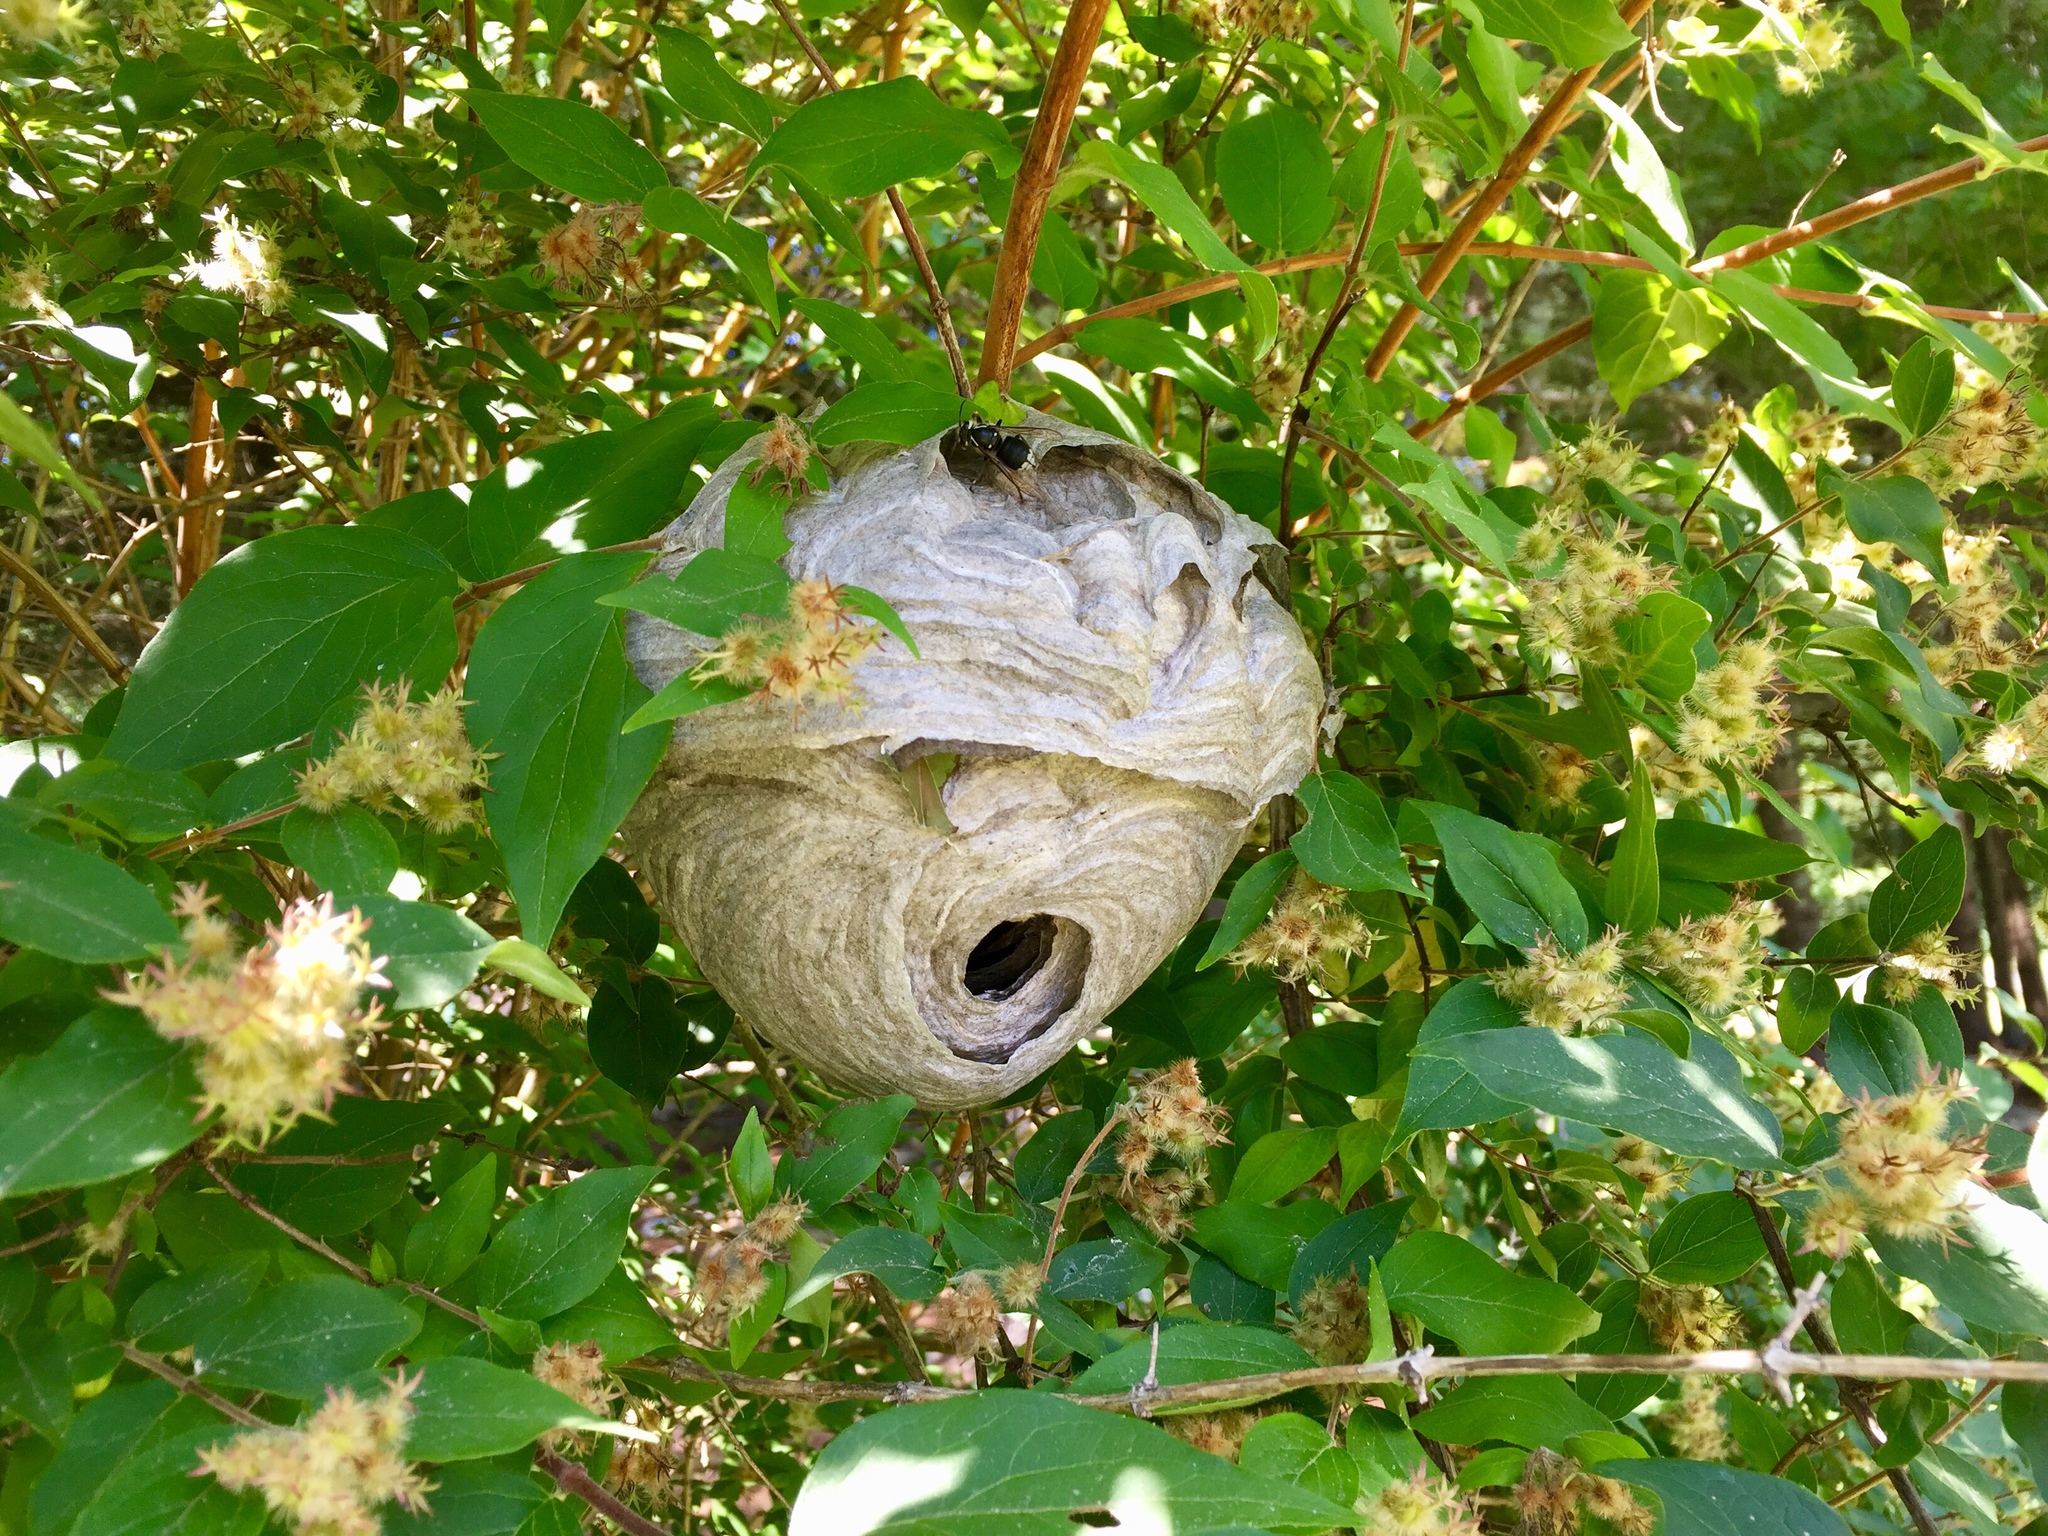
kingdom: Animalia
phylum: Arthropoda
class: Insecta
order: Hymenoptera
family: Vespidae
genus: Dolichovespula
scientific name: Dolichovespula maculata
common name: Bald-faced hornet
